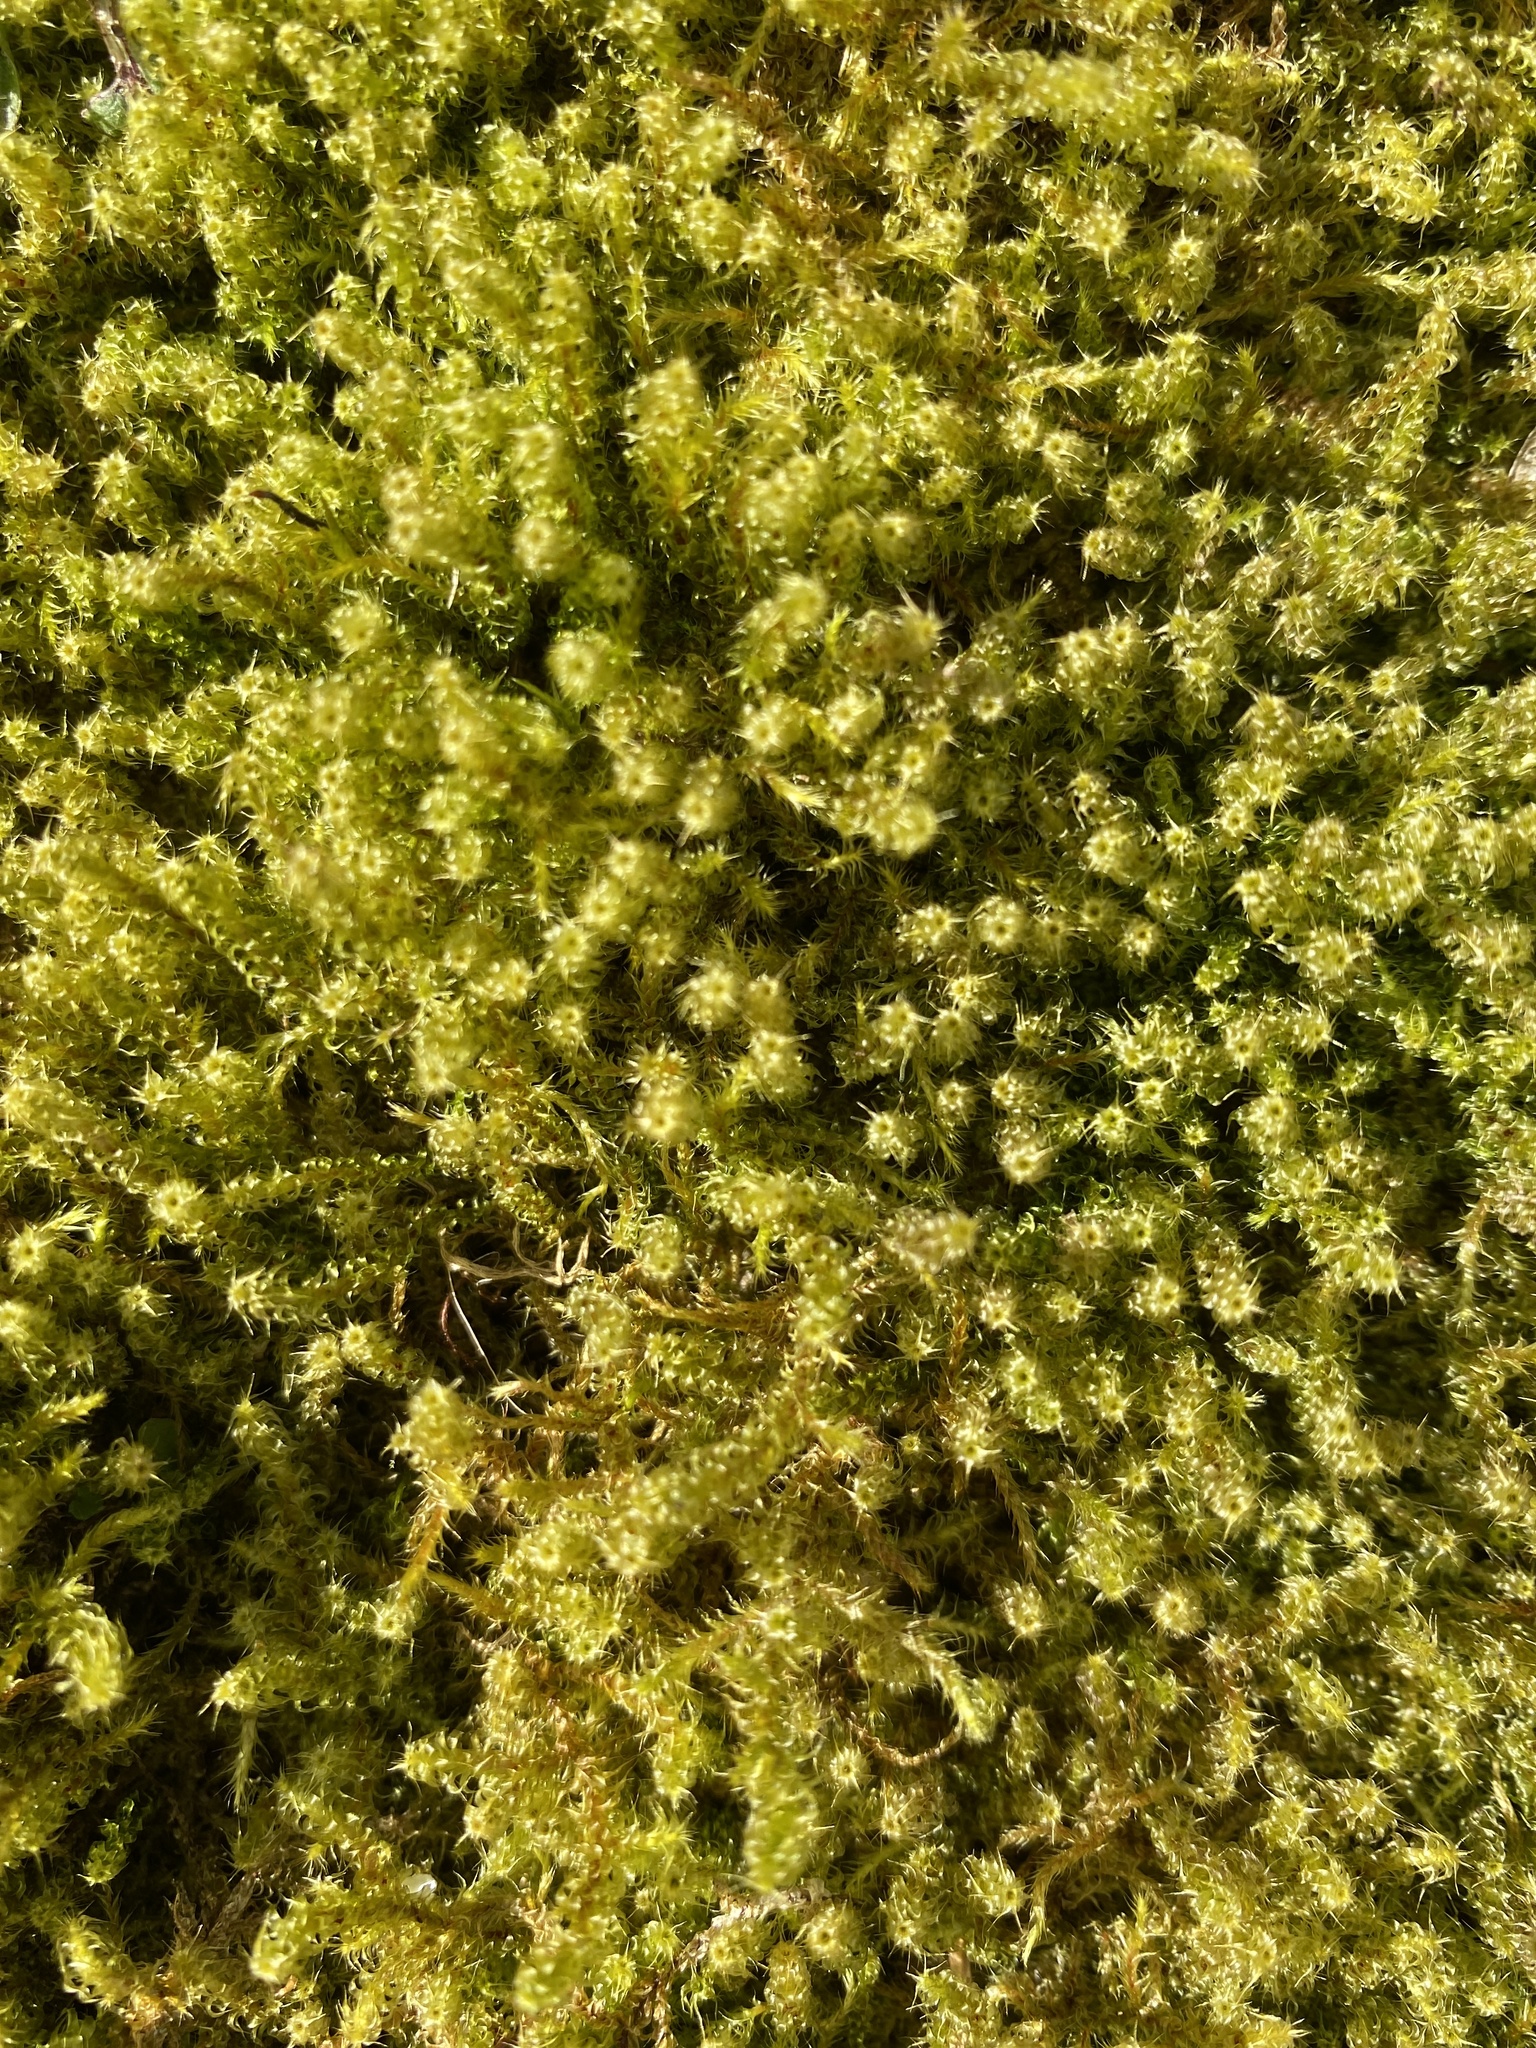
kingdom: Plantae
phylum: Bryophyta
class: Bryopsida
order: Hypnales
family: Hylocomiaceae
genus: Rhytidiadelphus
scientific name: Rhytidiadelphus squarrosus
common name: Springy turf-moss
